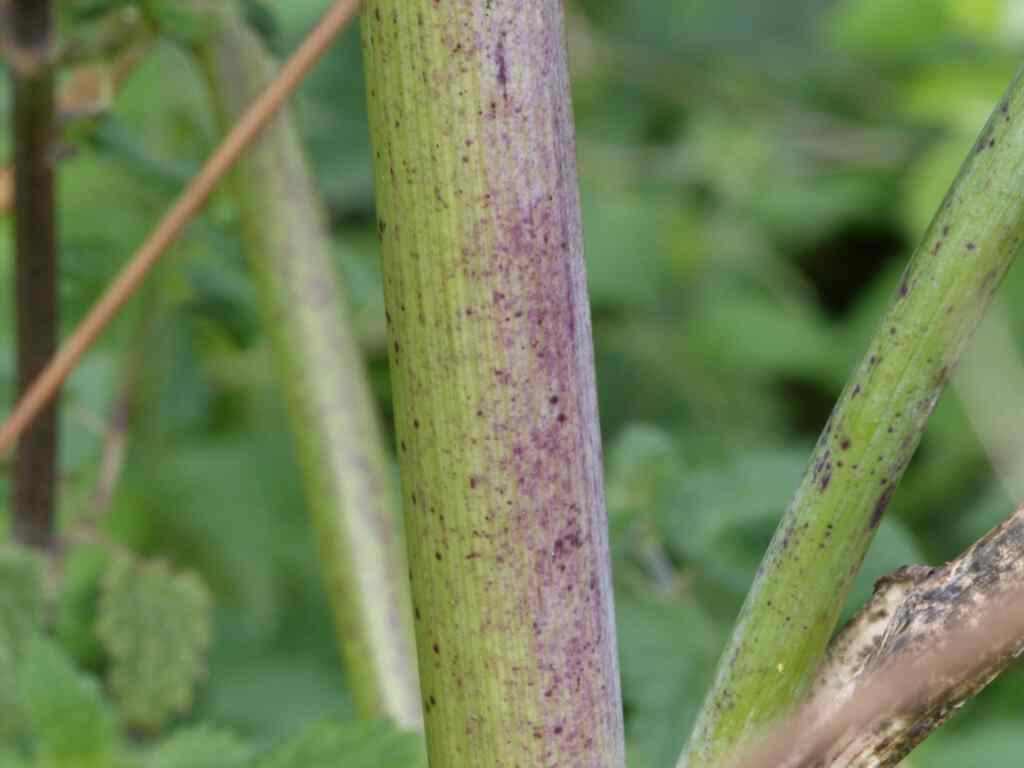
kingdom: Plantae
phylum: Tracheophyta
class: Magnoliopsida
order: Apiales
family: Apiaceae
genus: Conium
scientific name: Conium maculatum
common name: Hemlock
